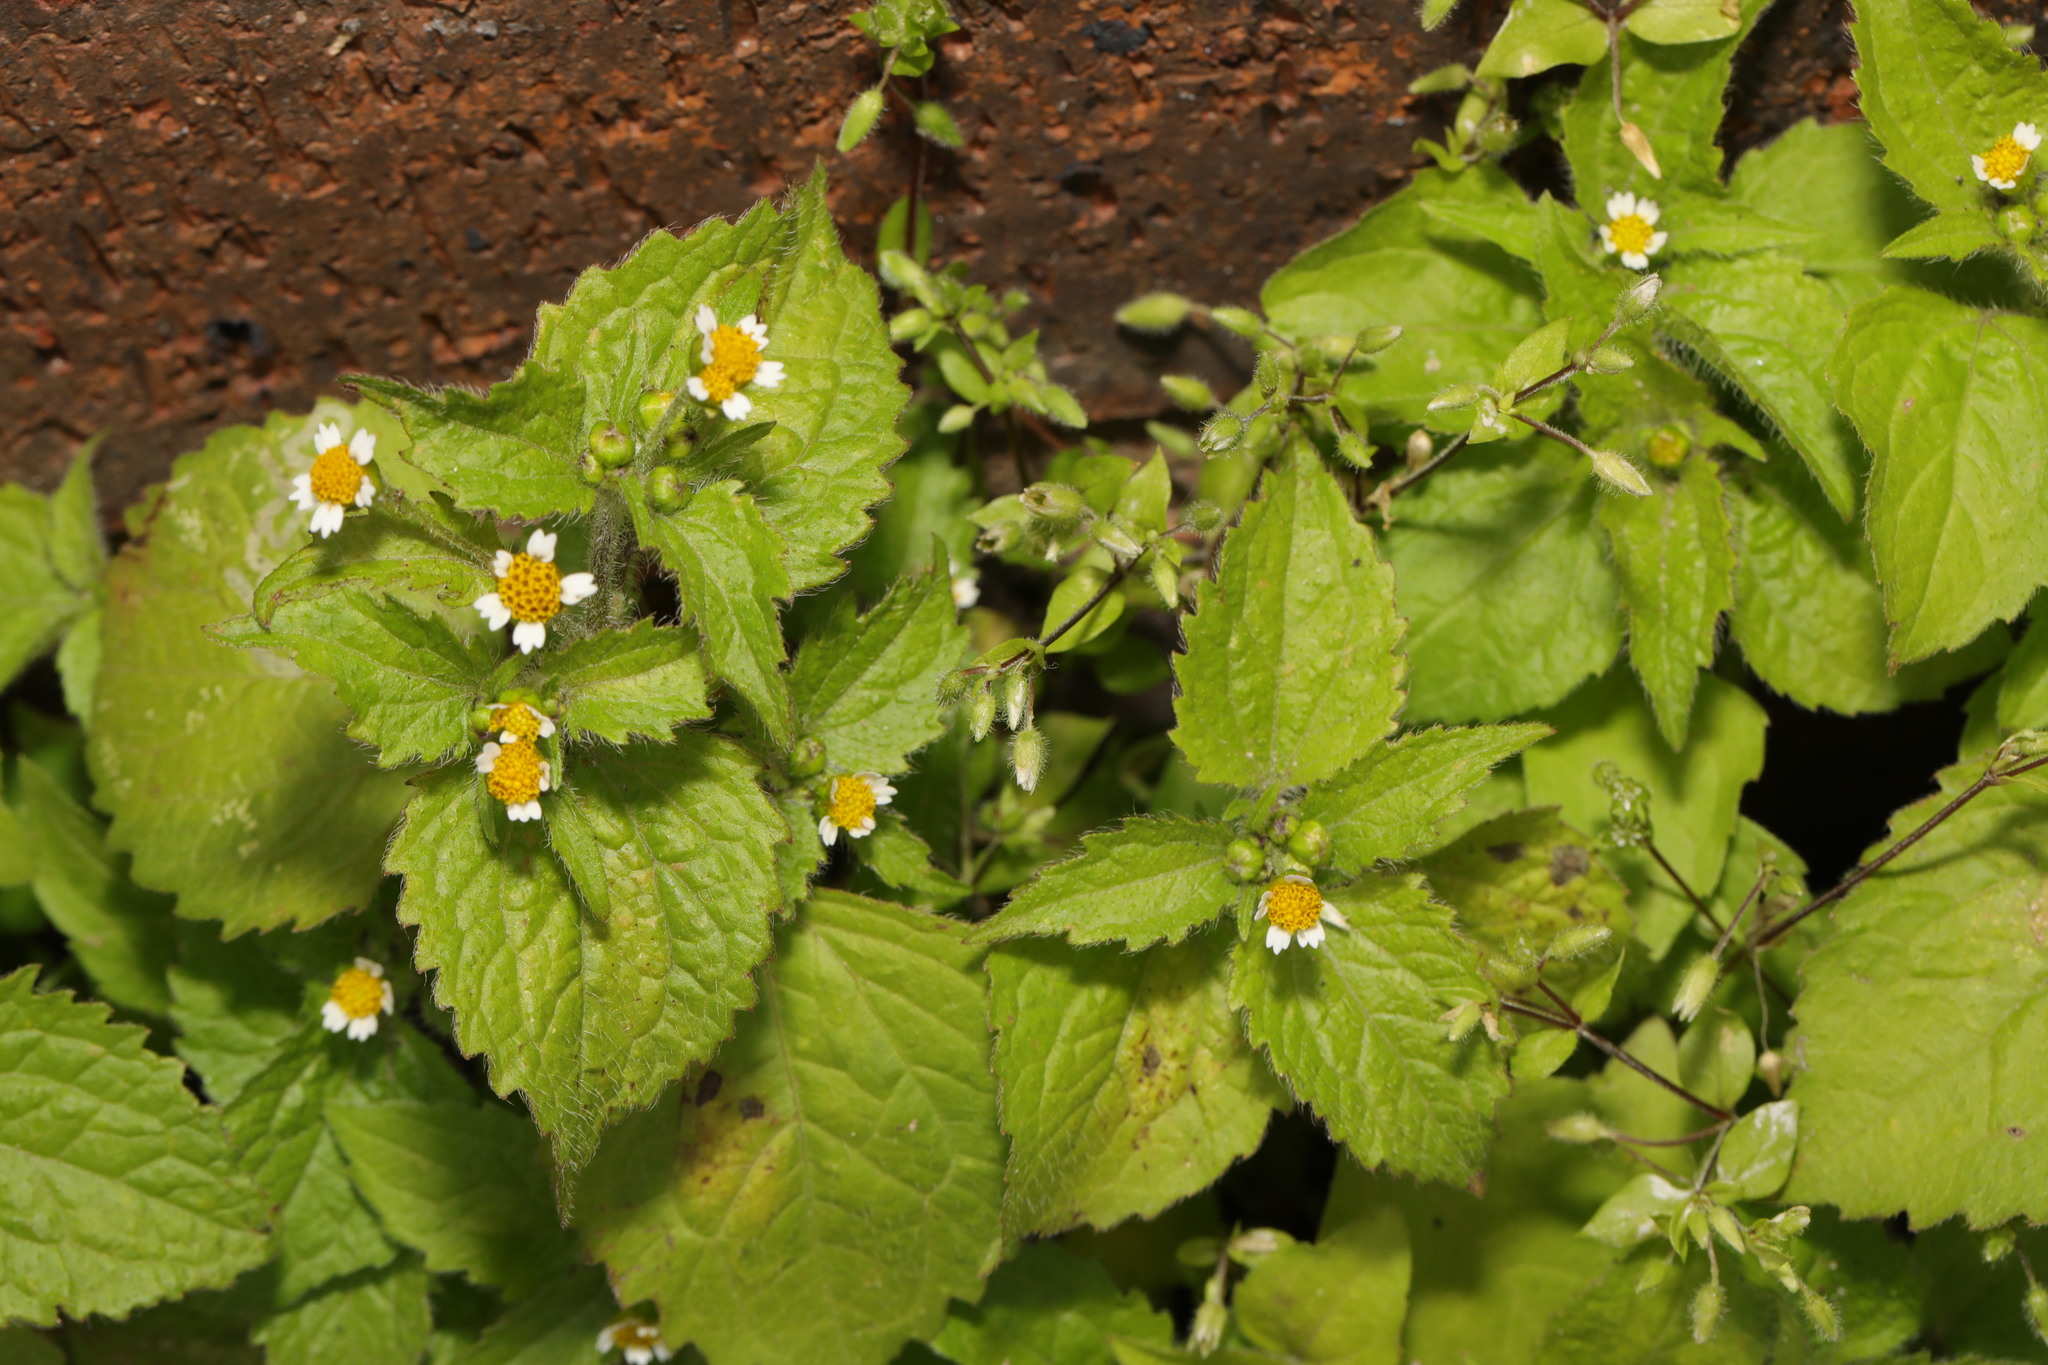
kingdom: Plantae
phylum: Tracheophyta
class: Magnoliopsida
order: Asterales
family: Asteraceae
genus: Galinsoga
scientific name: Galinsoga quadriradiata
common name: Shaggy soldier
